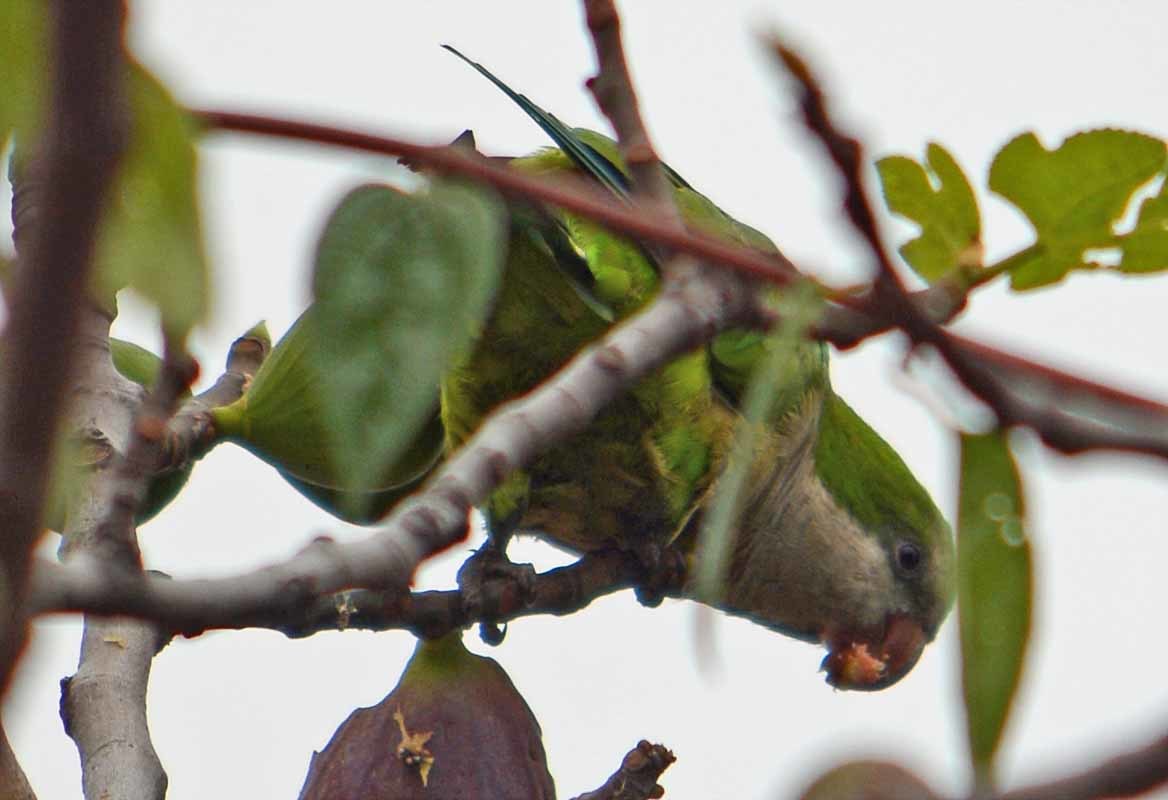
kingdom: Animalia
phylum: Chordata
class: Aves
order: Psittaciformes
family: Psittacidae
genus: Myiopsitta
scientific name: Myiopsitta monachus
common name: Monk parakeet
